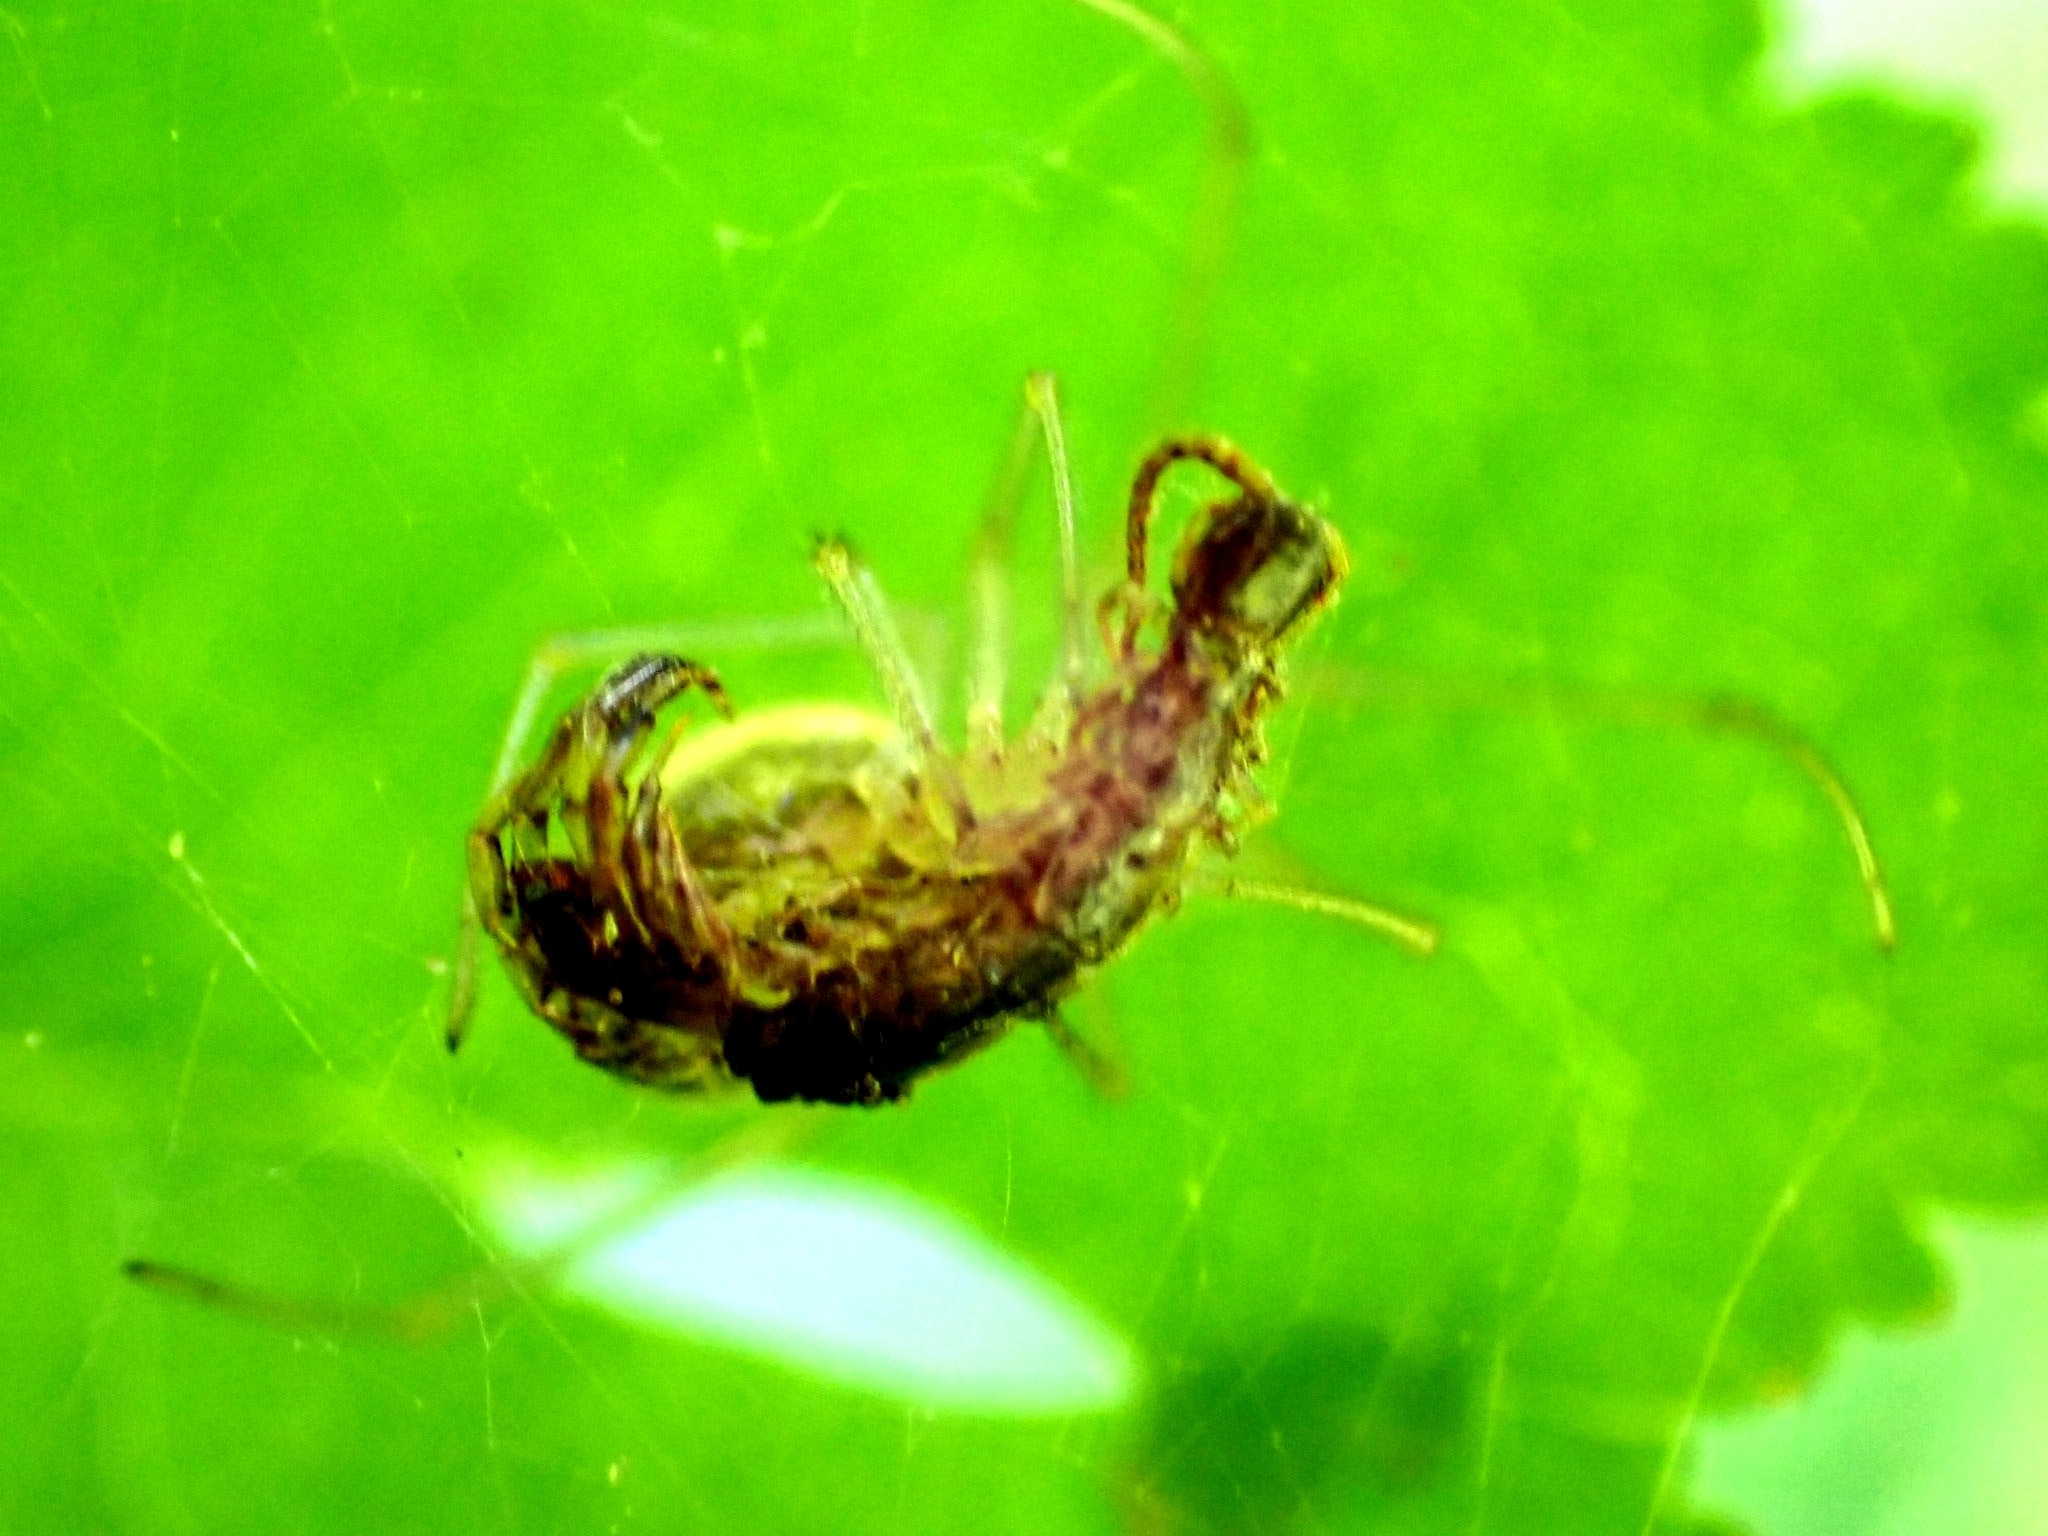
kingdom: Animalia
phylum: Arthropoda
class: Arachnida
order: Araneae
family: Theridiidae
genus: Enoplognatha
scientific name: Enoplognatha ovata
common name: Common candy-striped spider
